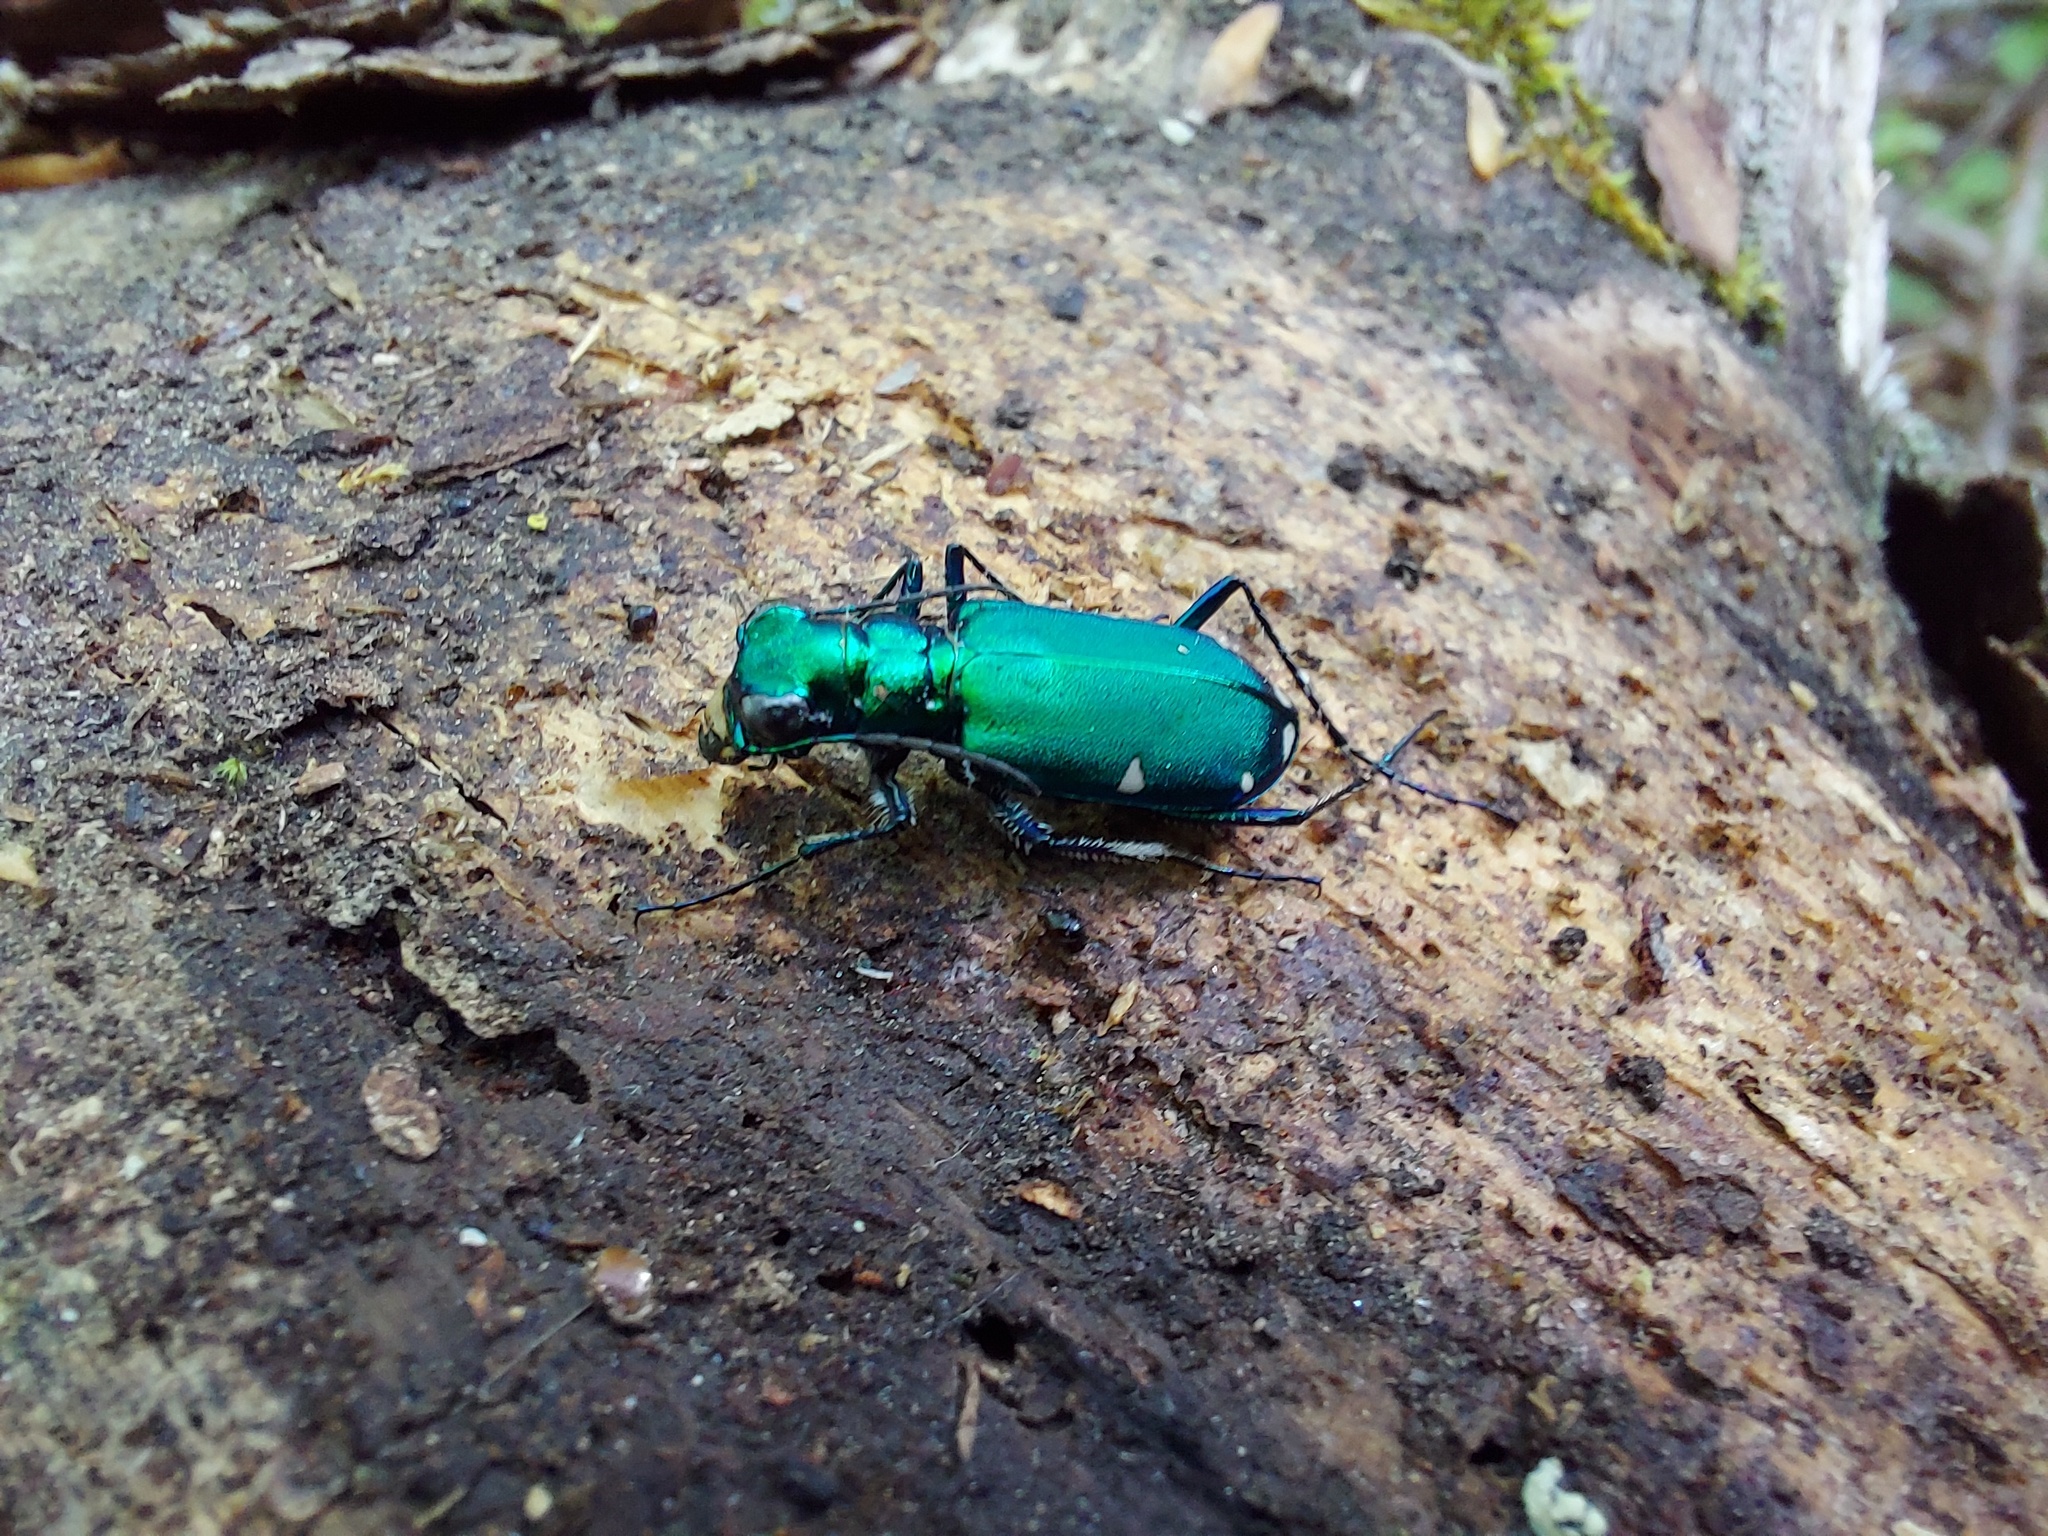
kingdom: Animalia
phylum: Arthropoda
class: Insecta
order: Coleoptera
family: Carabidae
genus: Cicindela
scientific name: Cicindela sexguttata
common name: Six-spotted tiger beetle
